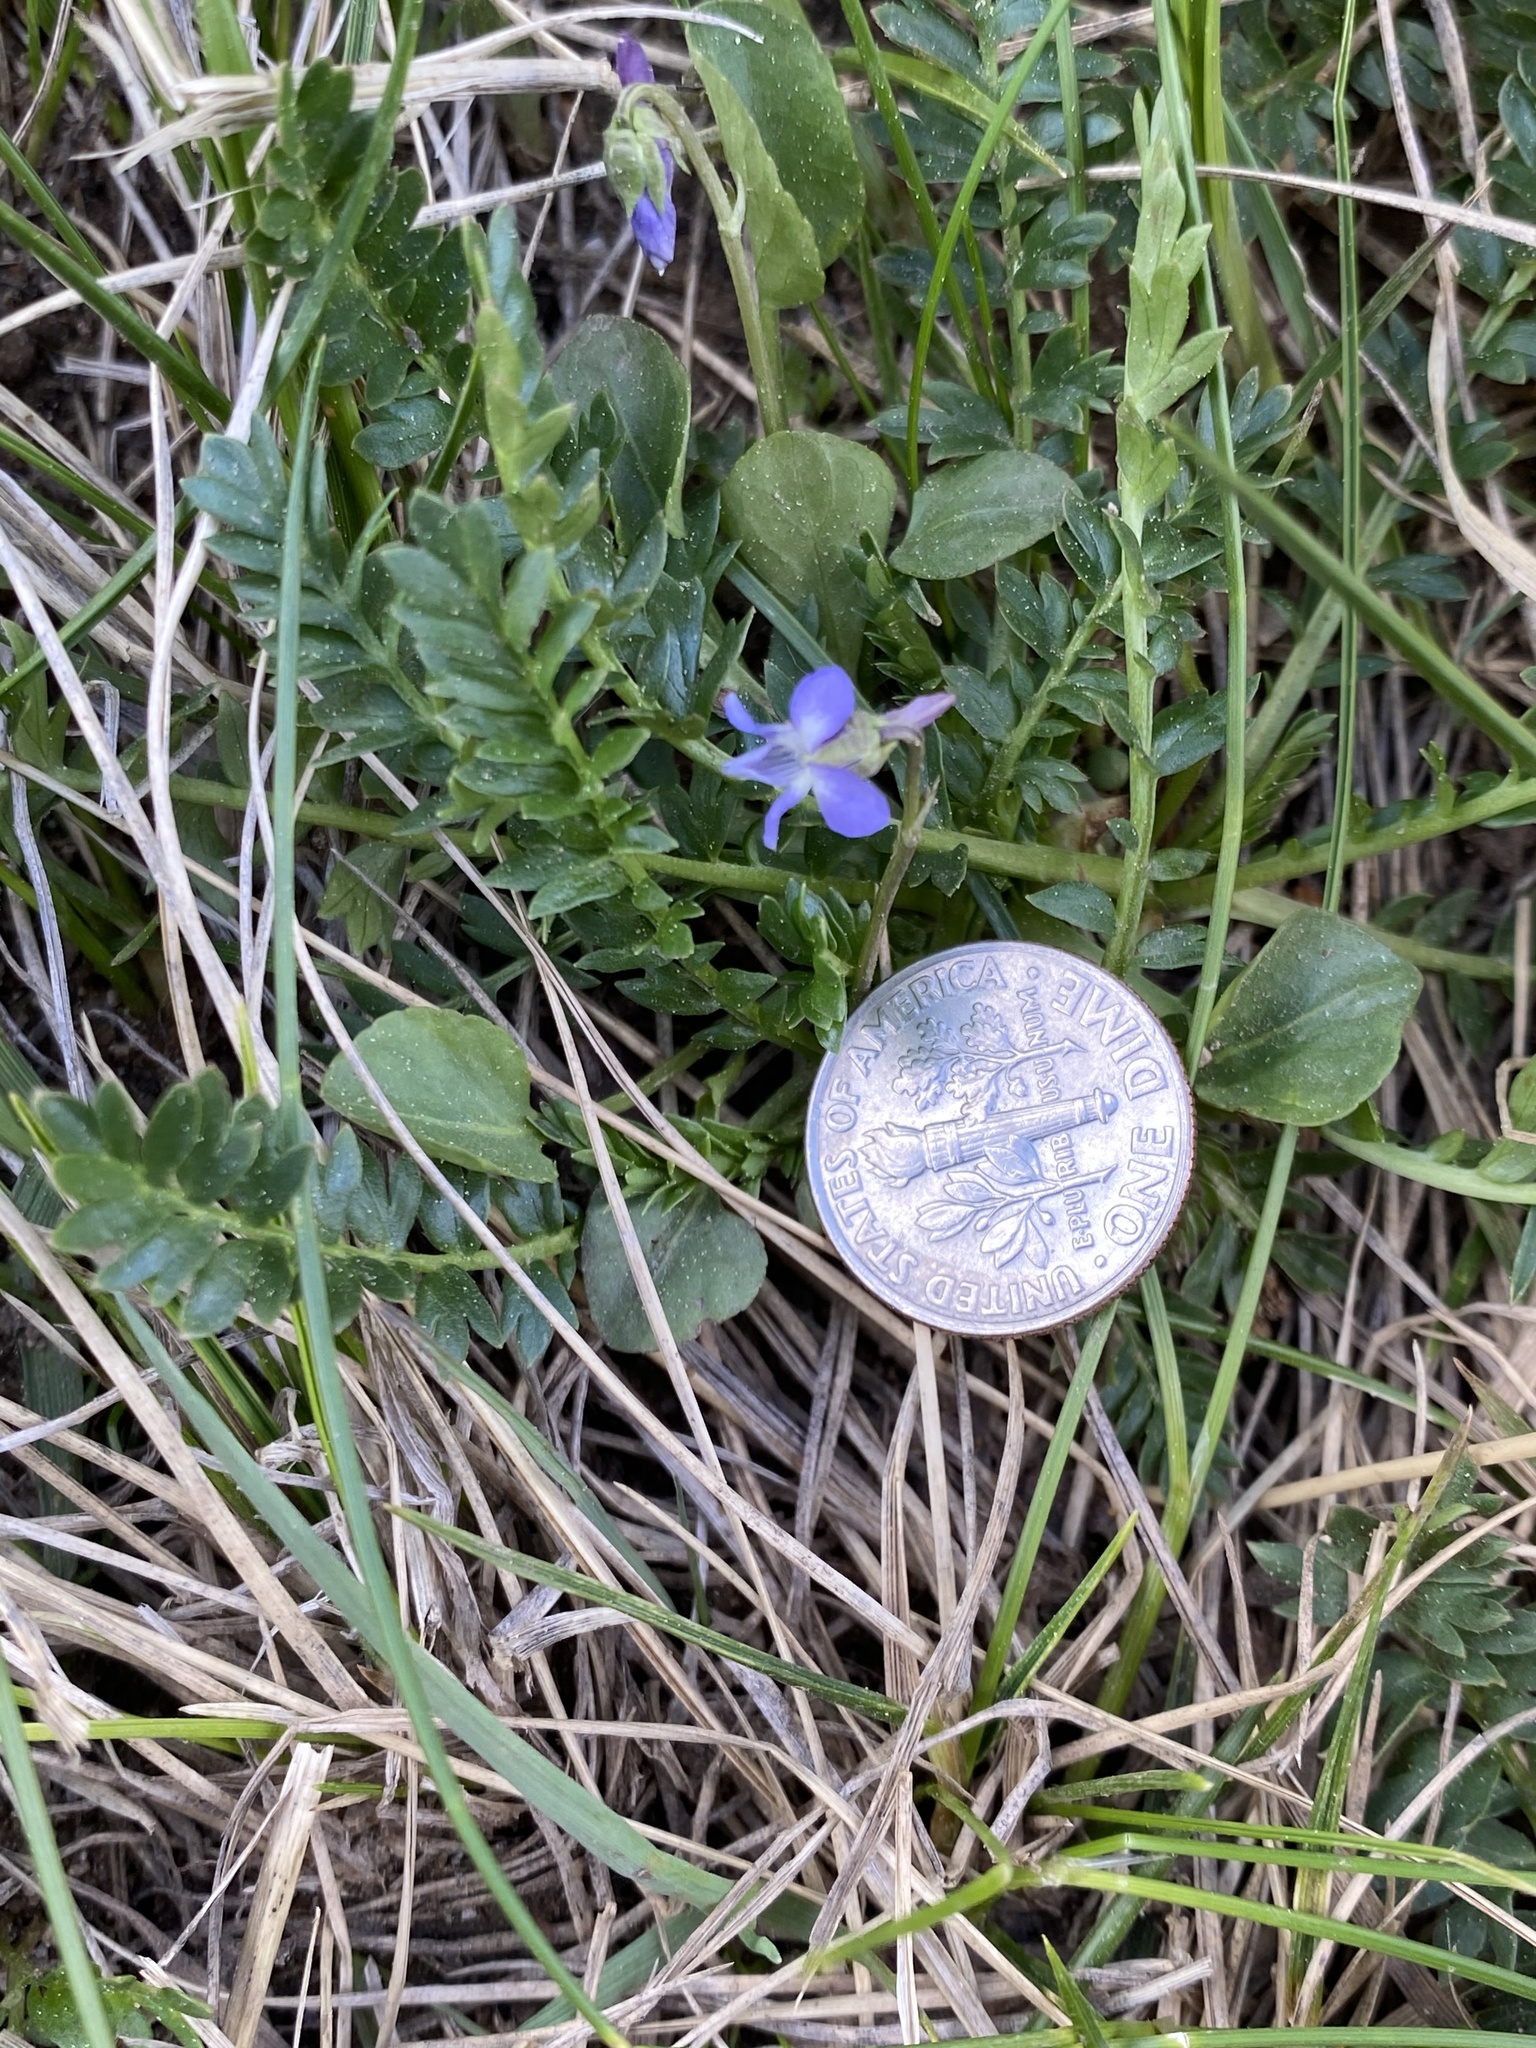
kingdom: Plantae
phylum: Tracheophyta
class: Magnoliopsida
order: Malpighiales
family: Violaceae
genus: Viola
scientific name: Viola adunca
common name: Sand violet
